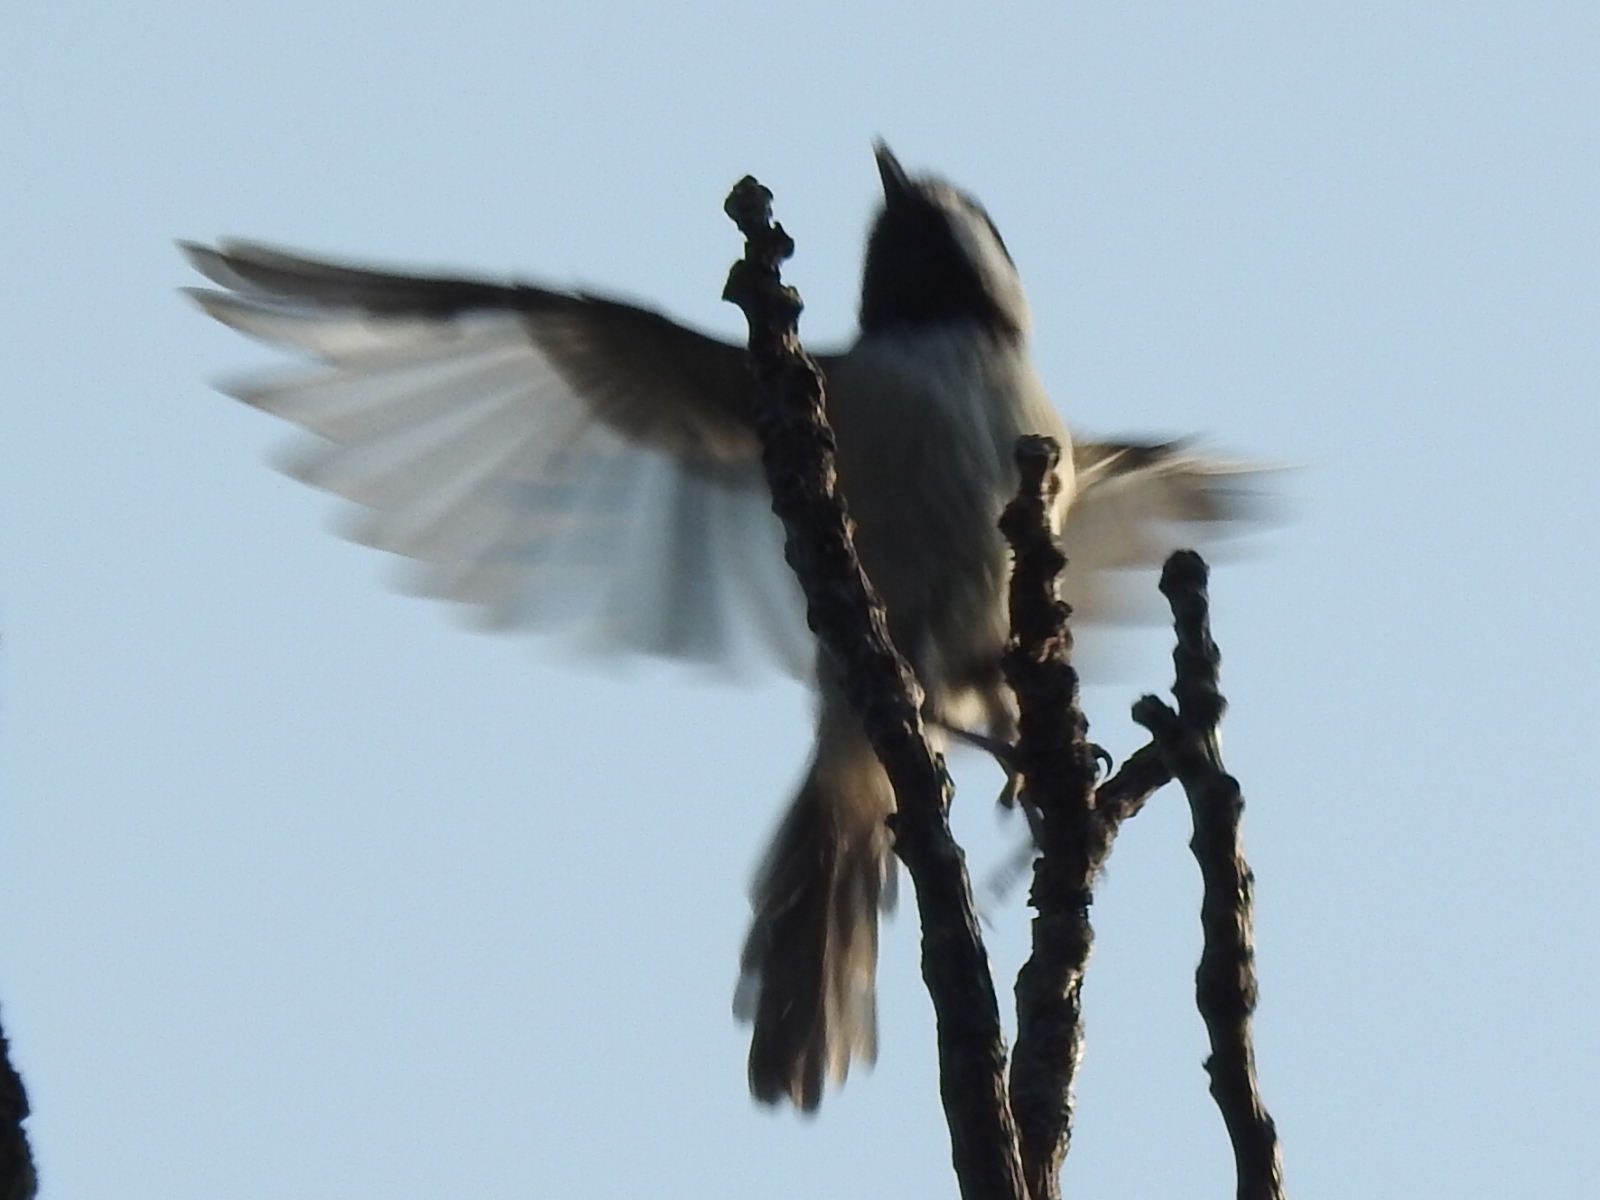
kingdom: Animalia
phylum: Chordata
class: Aves
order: Passeriformes
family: Paridae
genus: Poecile
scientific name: Poecile carolinensis
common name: Carolina chickadee
